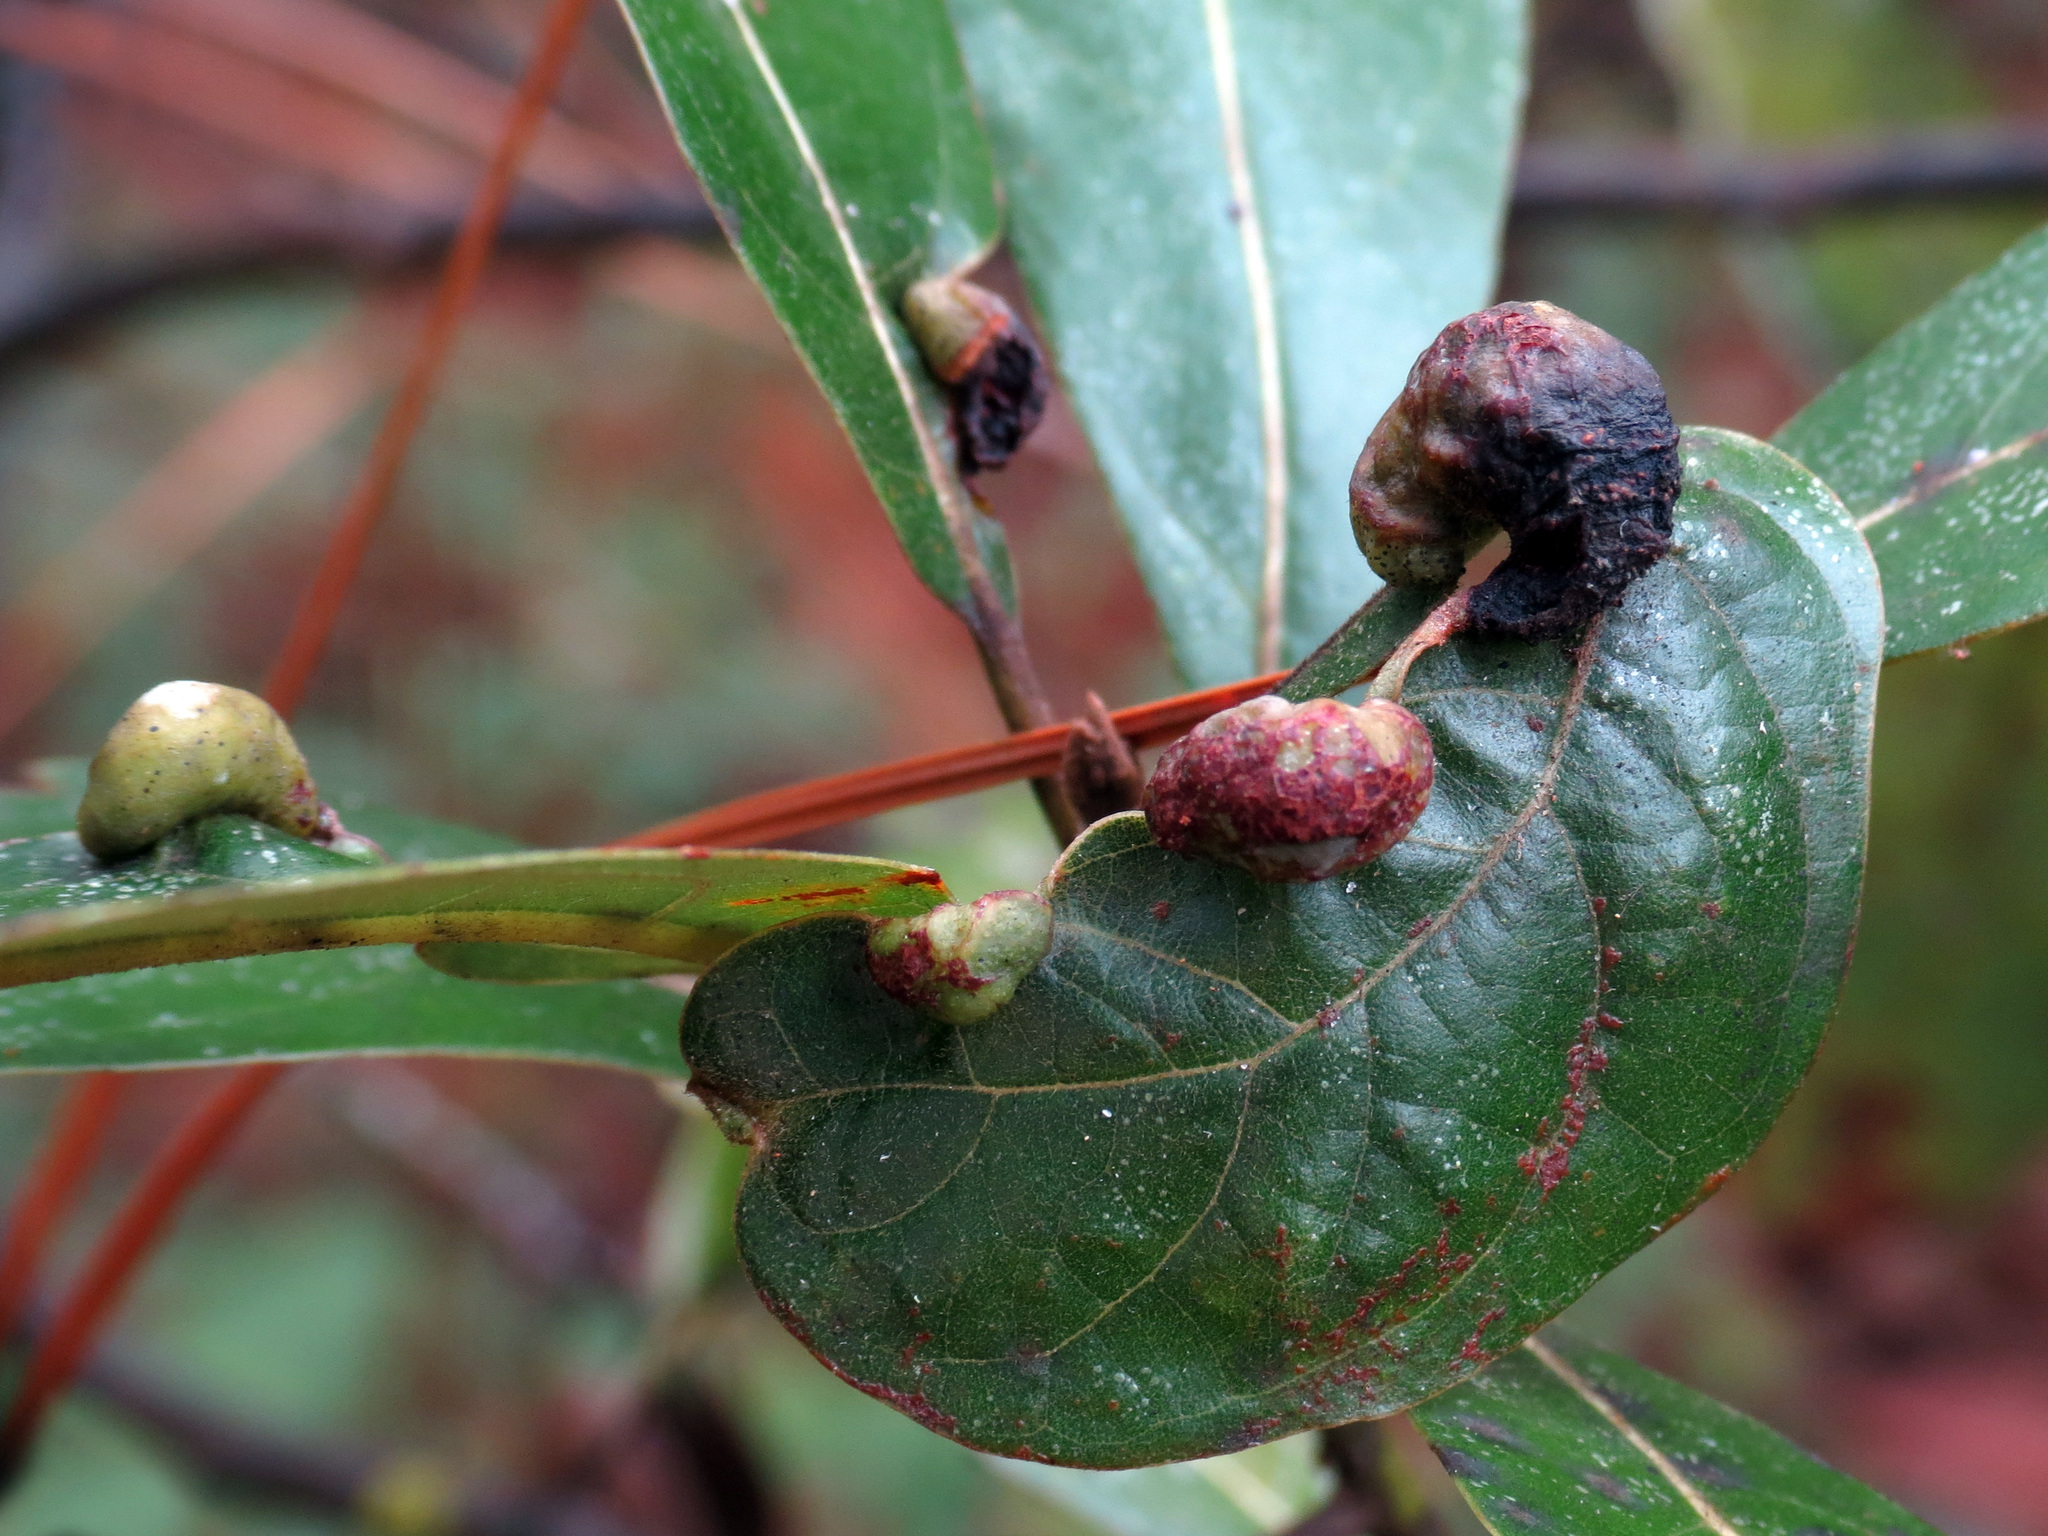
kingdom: Animalia
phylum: Arthropoda
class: Insecta
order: Hemiptera
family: Triozidae
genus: Trioza
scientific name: Trioza magnoliae
